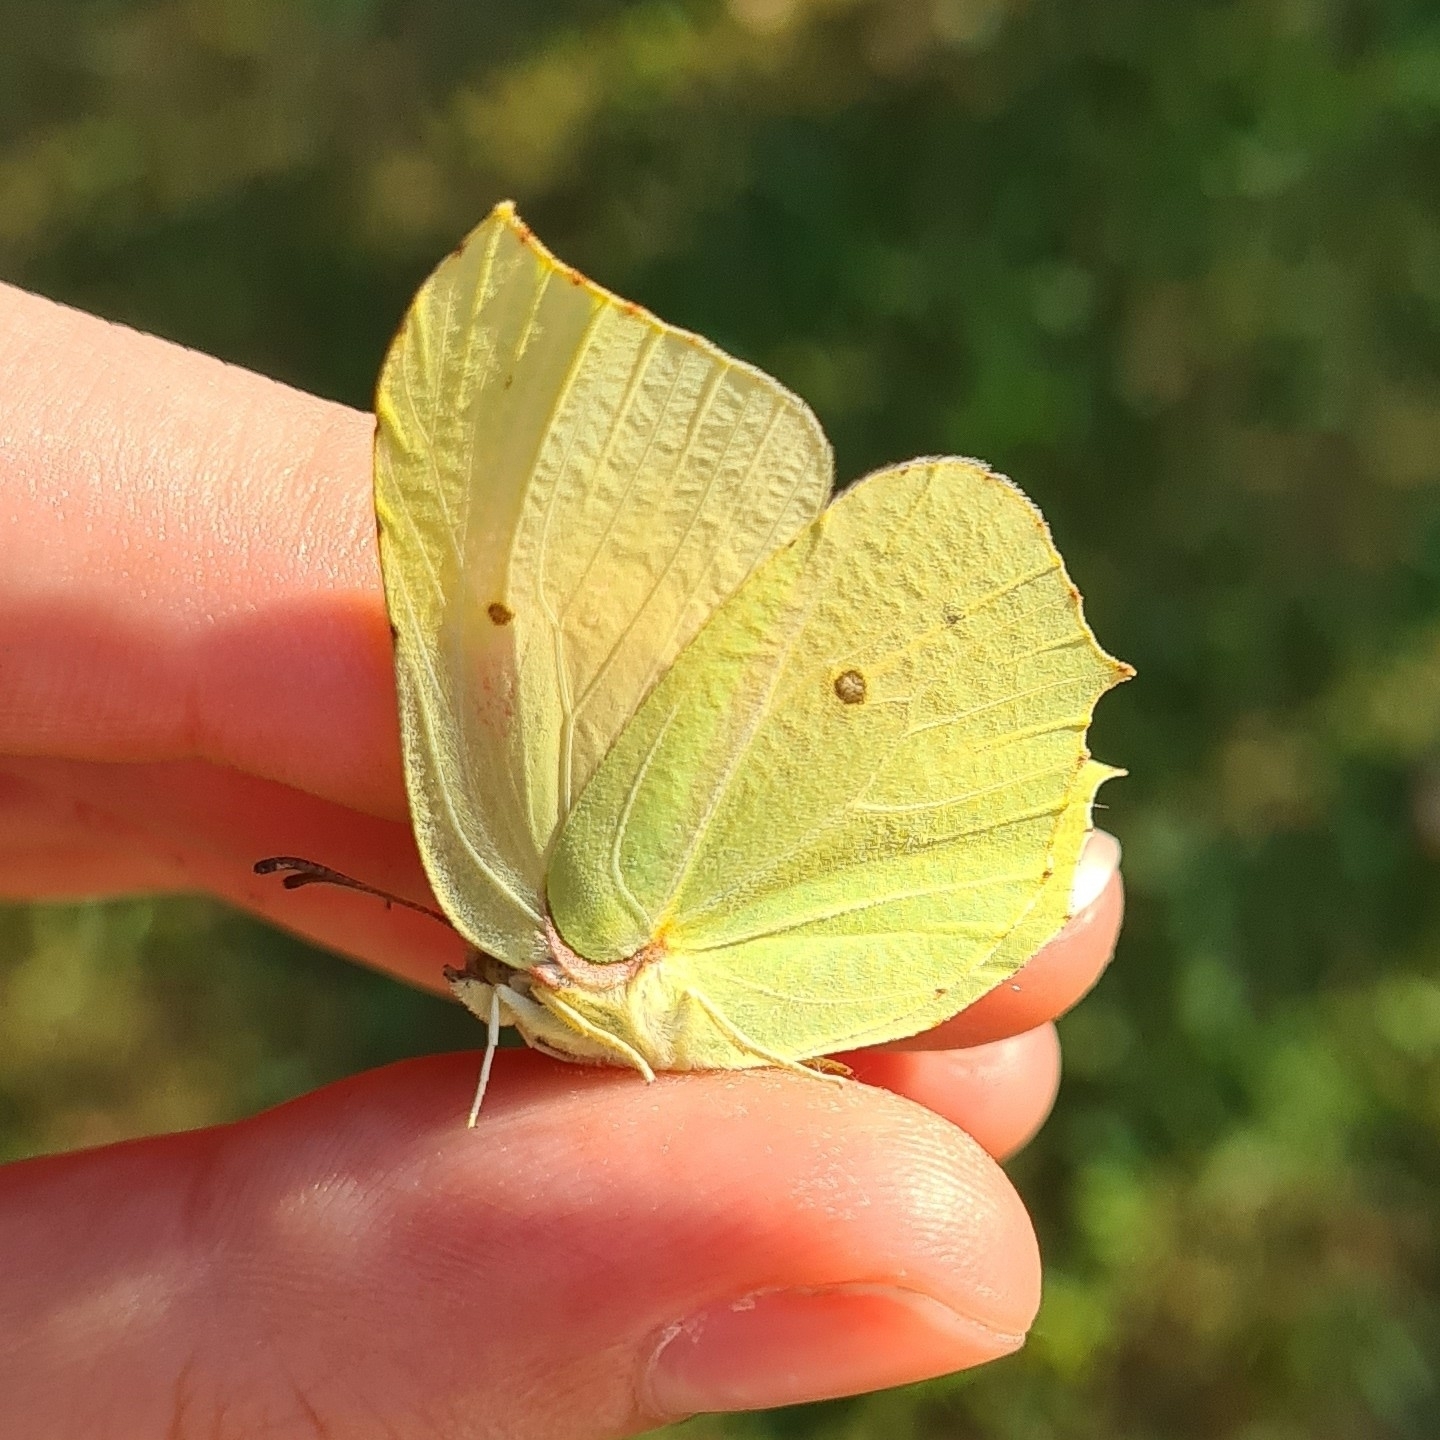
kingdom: Animalia
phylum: Arthropoda
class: Insecta
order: Lepidoptera
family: Pieridae
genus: Gonepteryx
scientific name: Gonepteryx rhamni
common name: Brimstone
